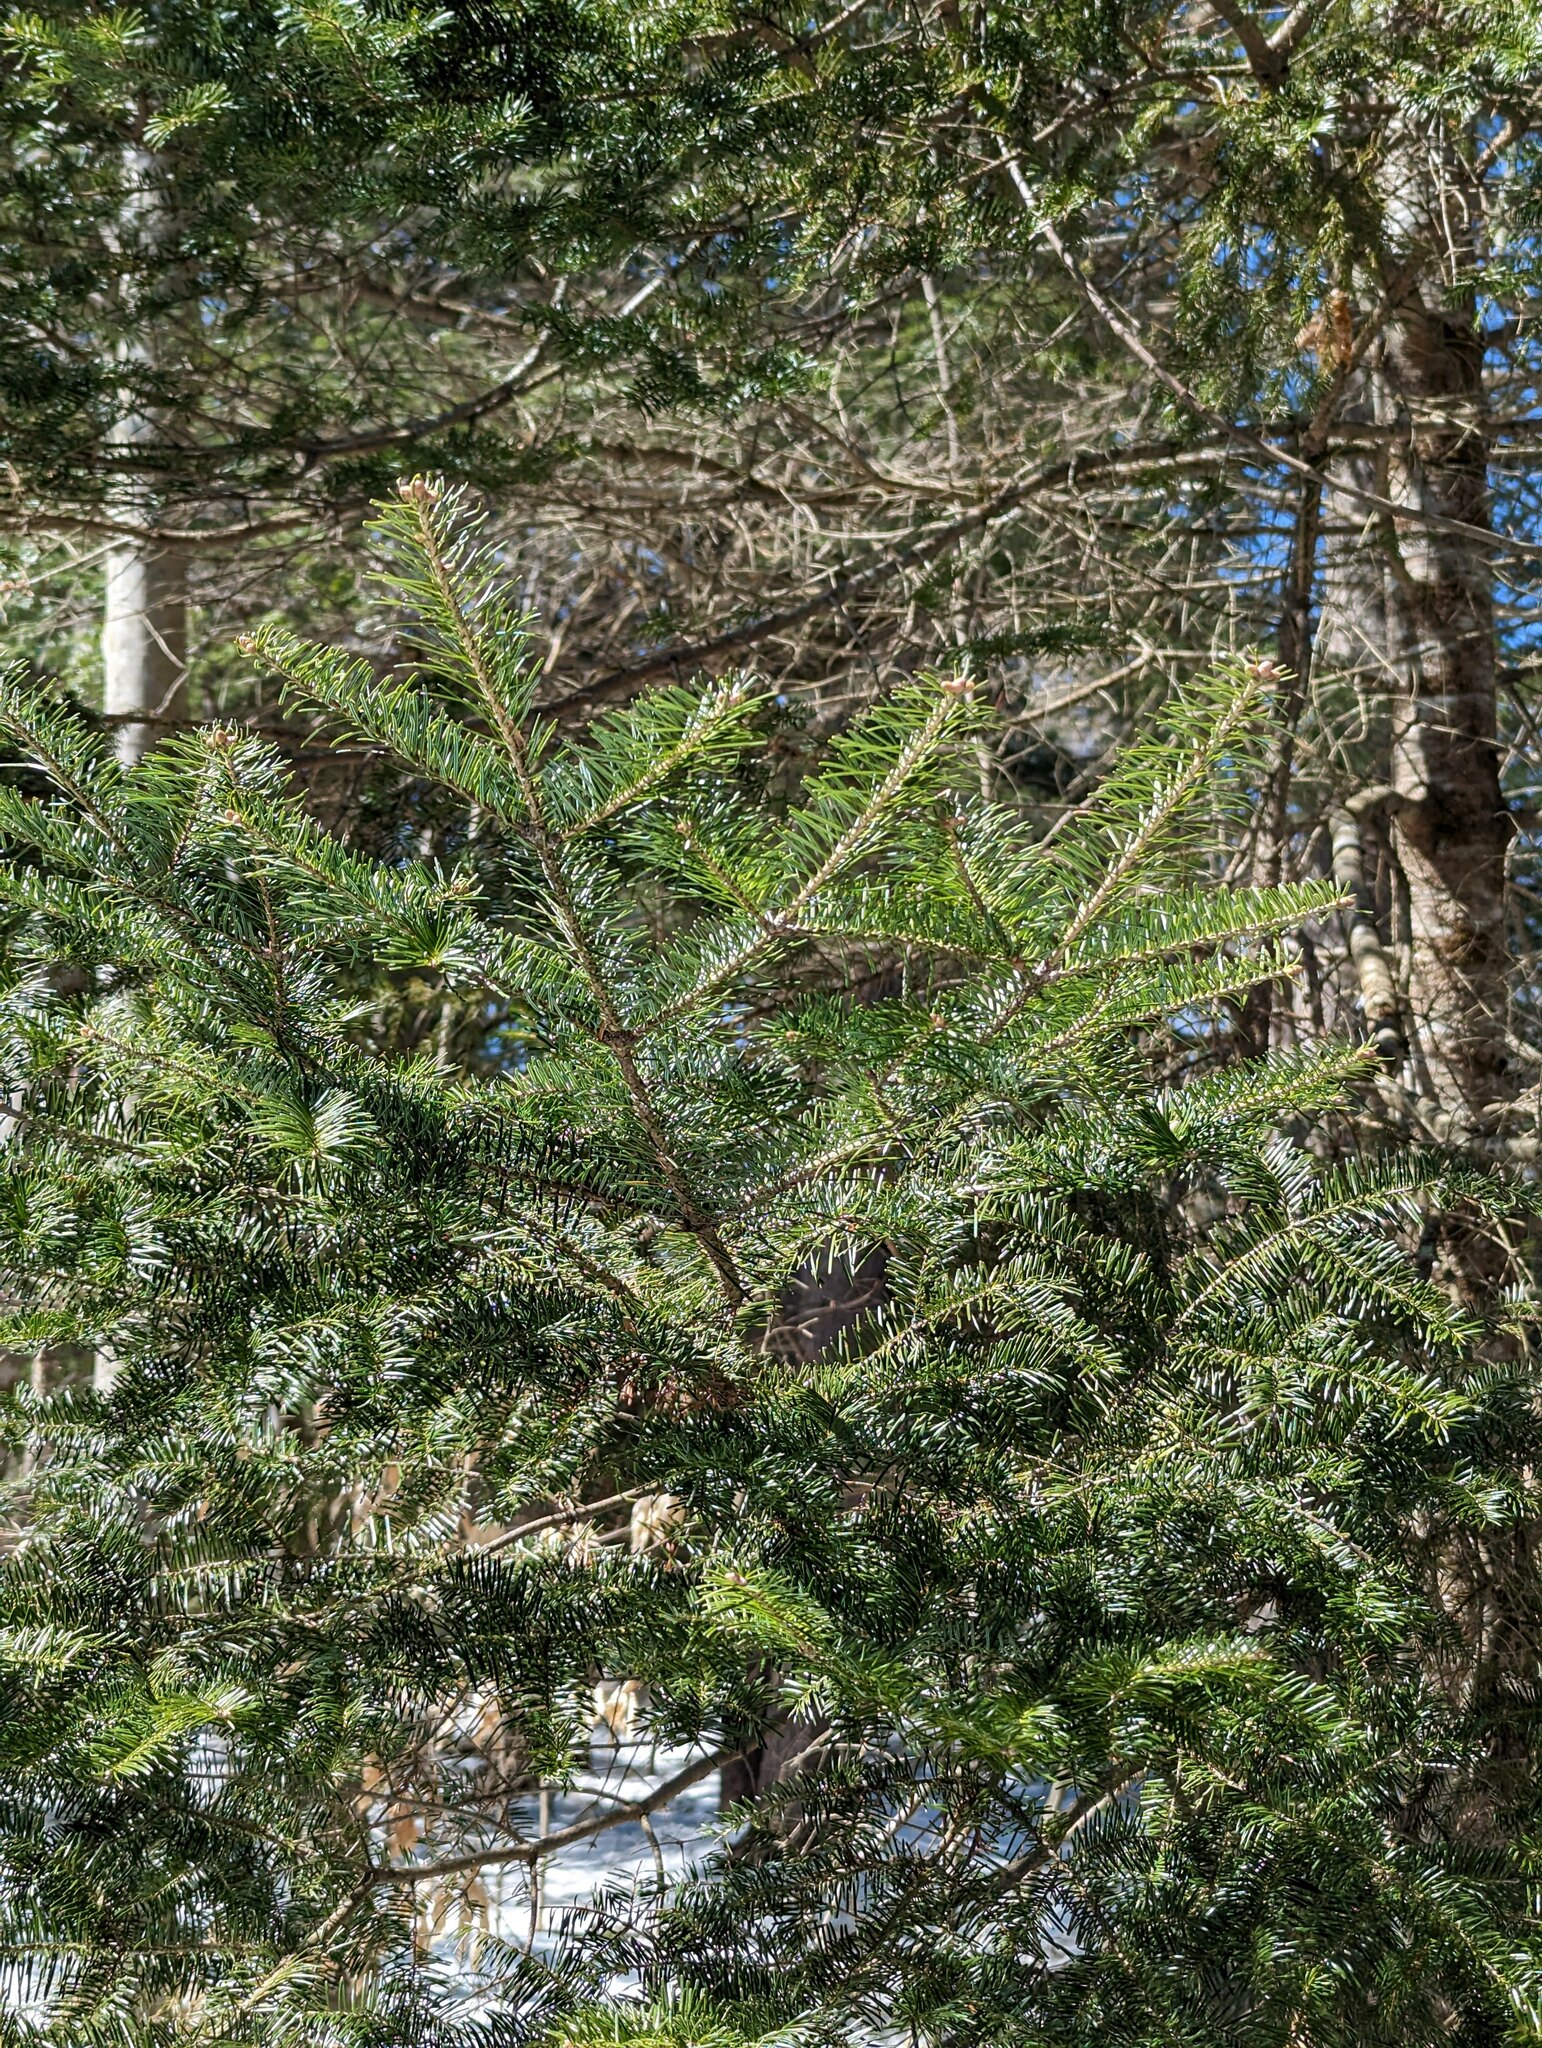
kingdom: Plantae
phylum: Tracheophyta
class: Pinopsida
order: Pinales
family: Pinaceae
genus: Abies
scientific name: Abies balsamea
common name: Balsam fir
